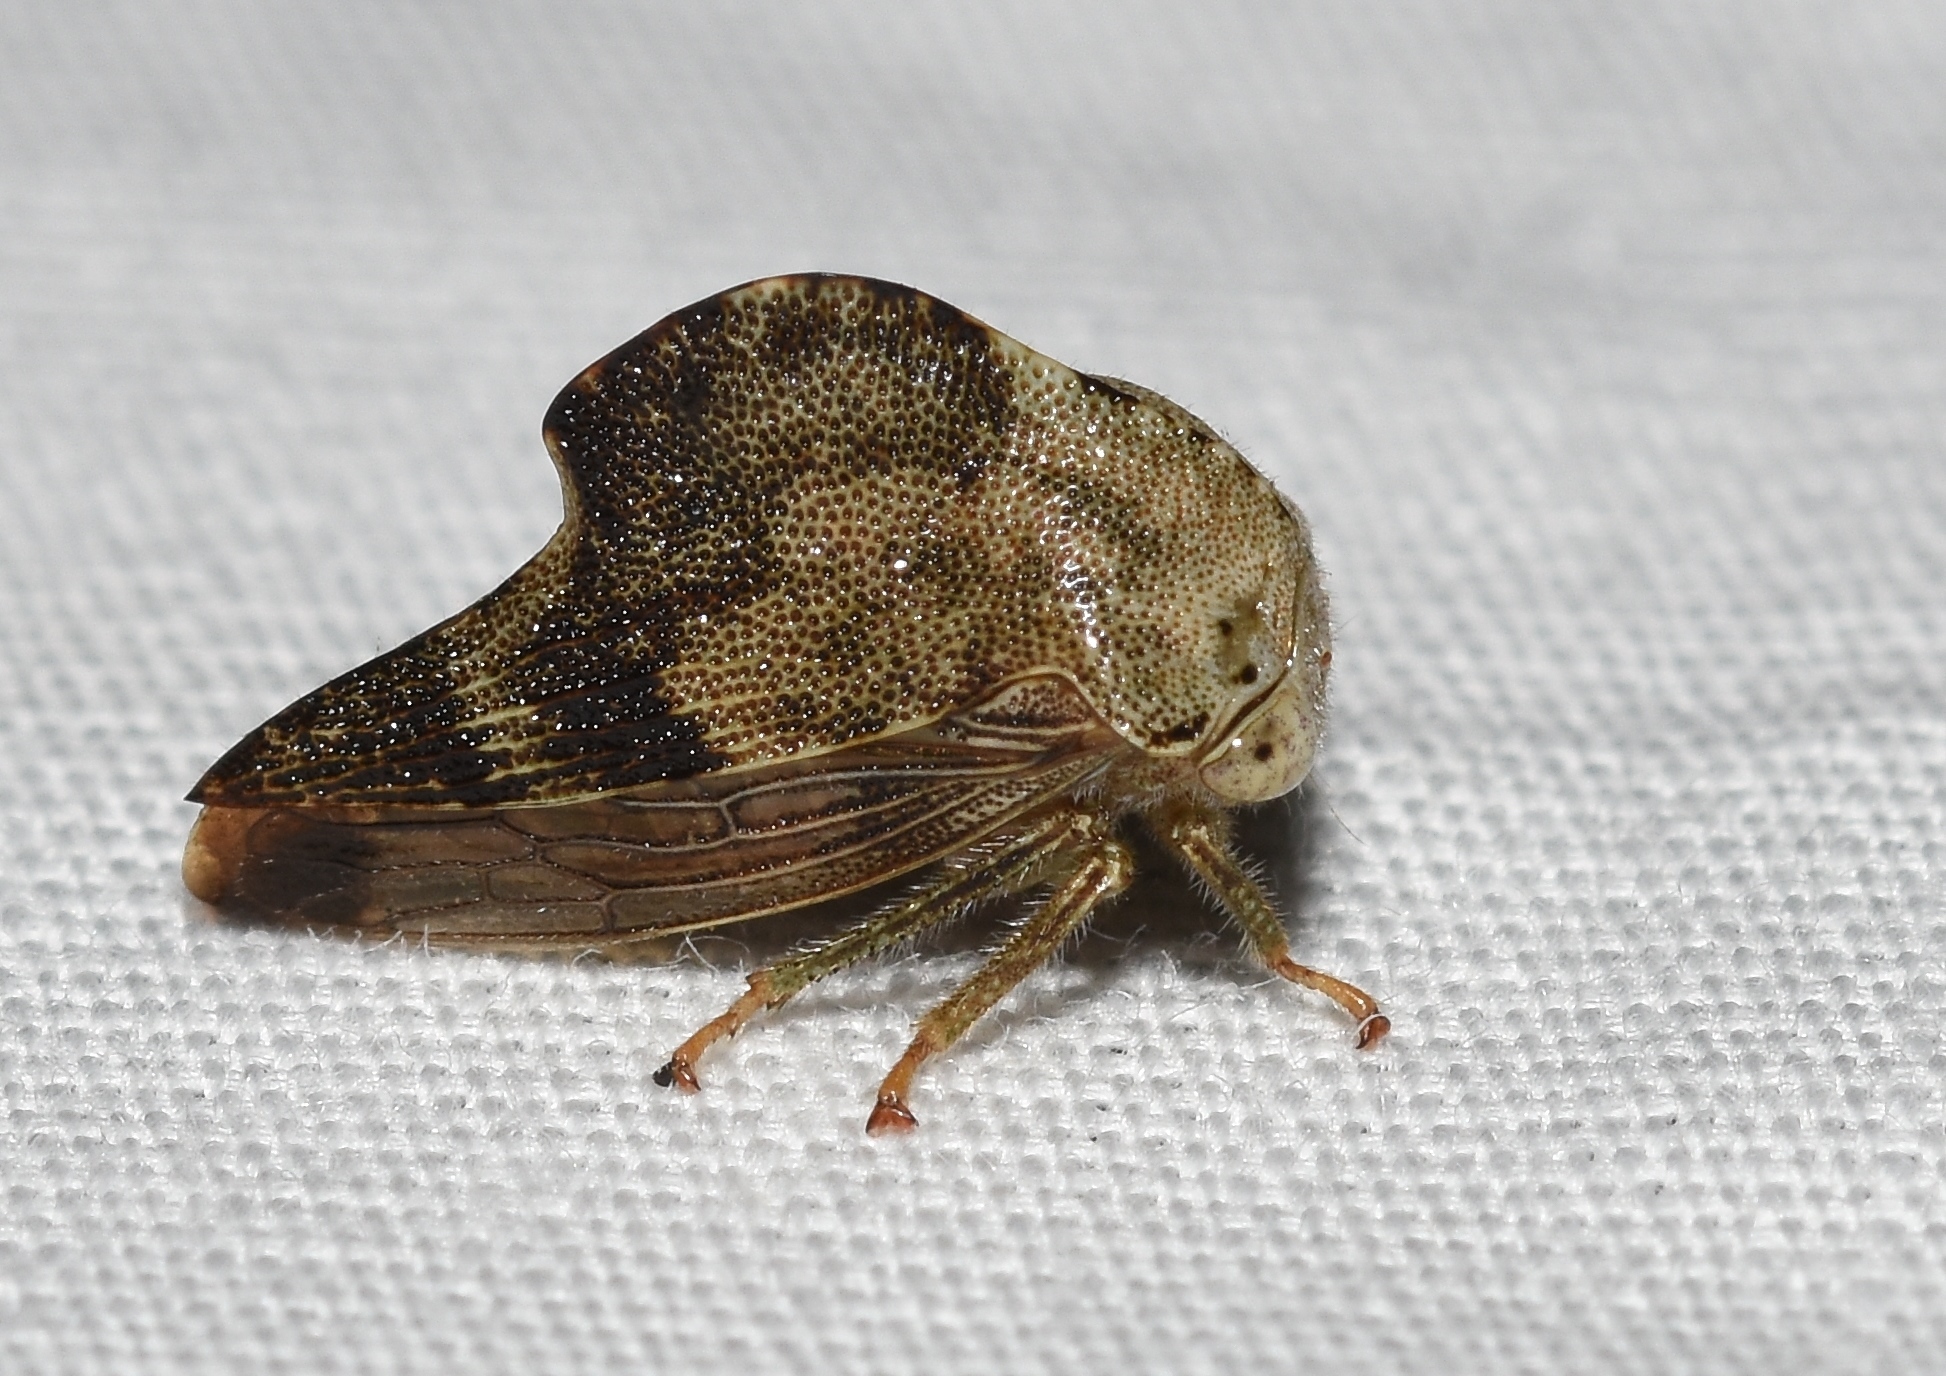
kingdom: Animalia
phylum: Arthropoda
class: Insecta
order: Hemiptera
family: Membracidae
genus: Telamona
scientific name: Telamona reclivata
